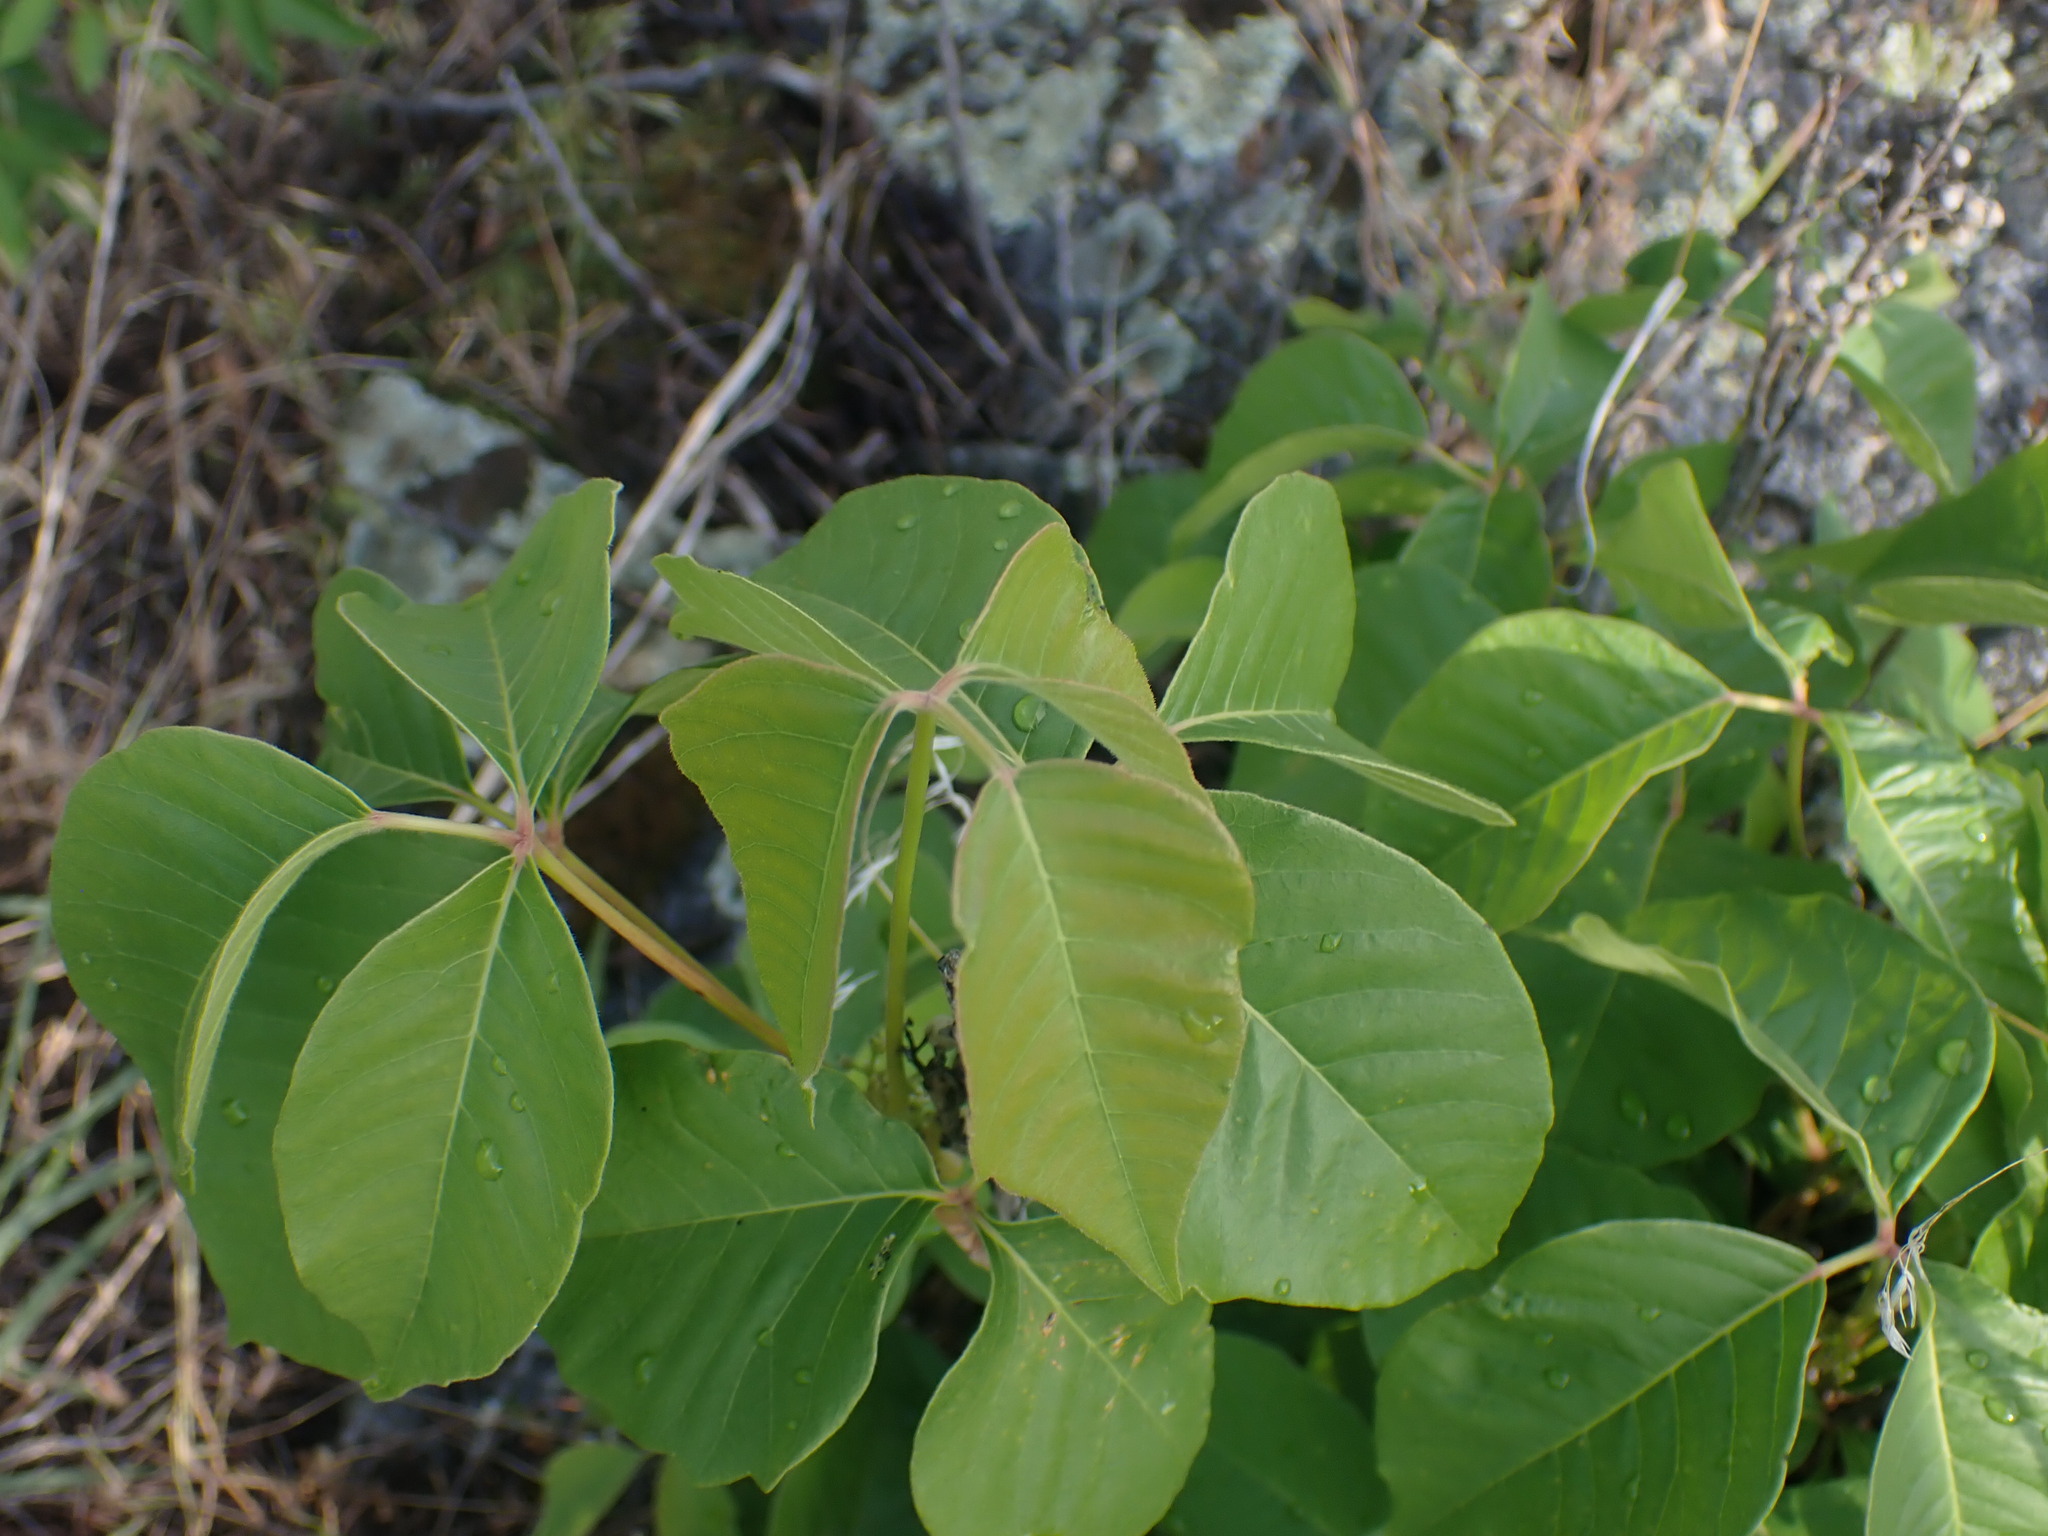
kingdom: Plantae
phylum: Tracheophyta
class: Magnoliopsida
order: Sapindales
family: Anacardiaceae
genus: Toxicodendron
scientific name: Toxicodendron rydbergii
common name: Rydberg's poison-ivy
